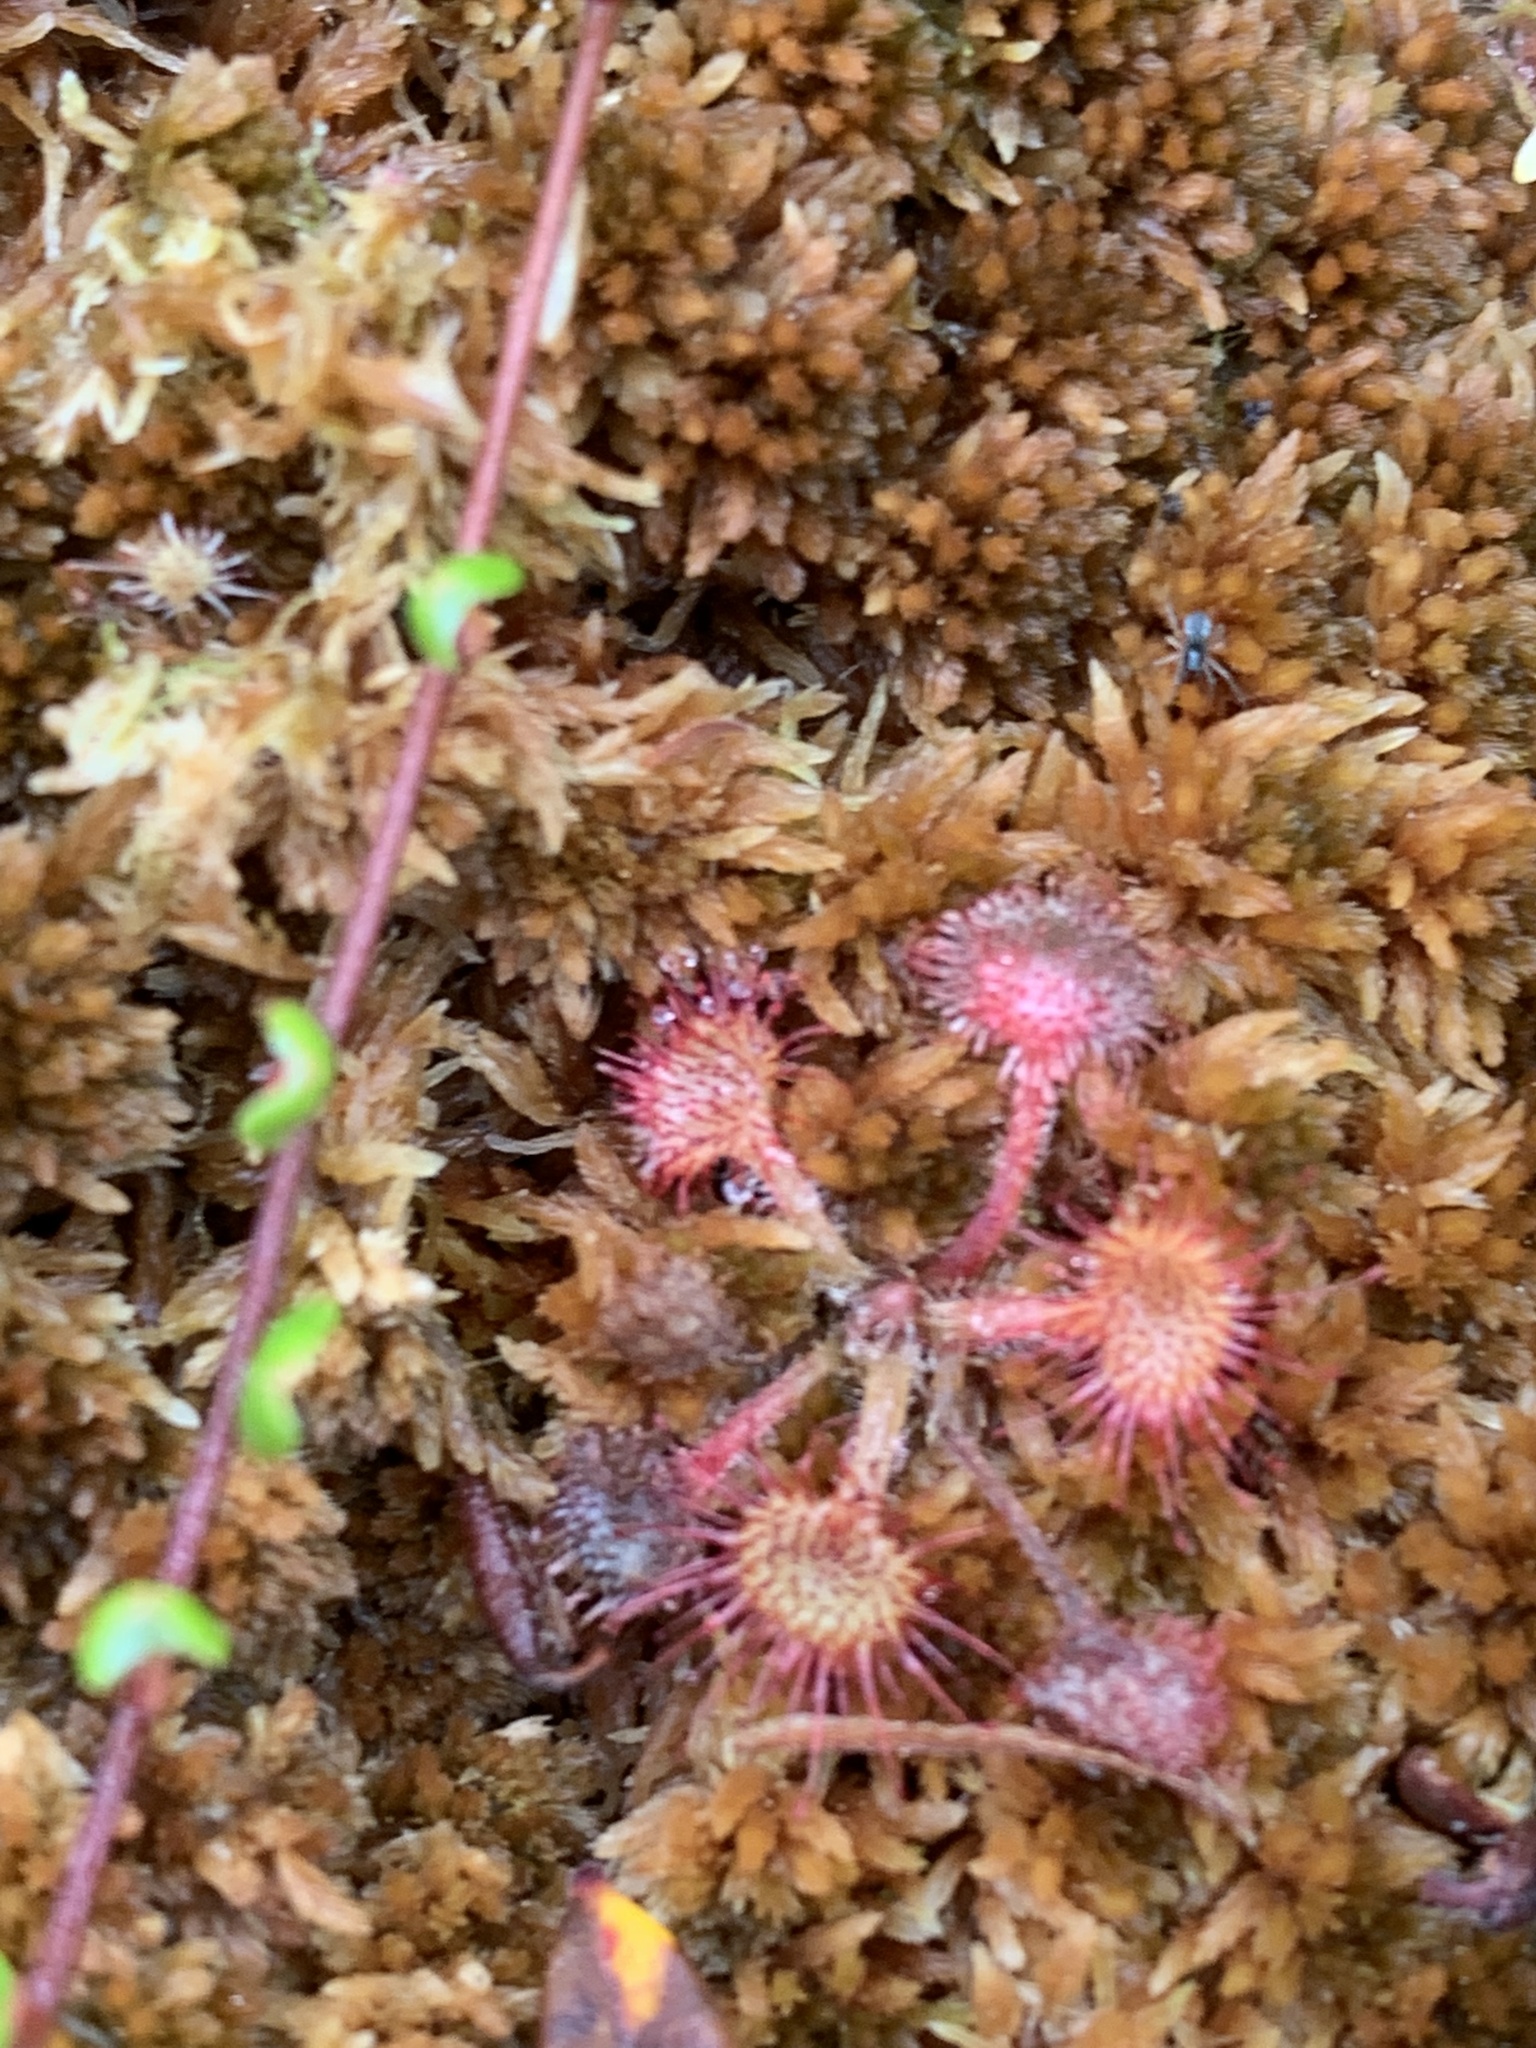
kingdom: Plantae
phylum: Tracheophyta
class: Magnoliopsida
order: Caryophyllales
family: Droseraceae
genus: Drosera
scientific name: Drosera rotundifolia
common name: Round-leaved sundew
